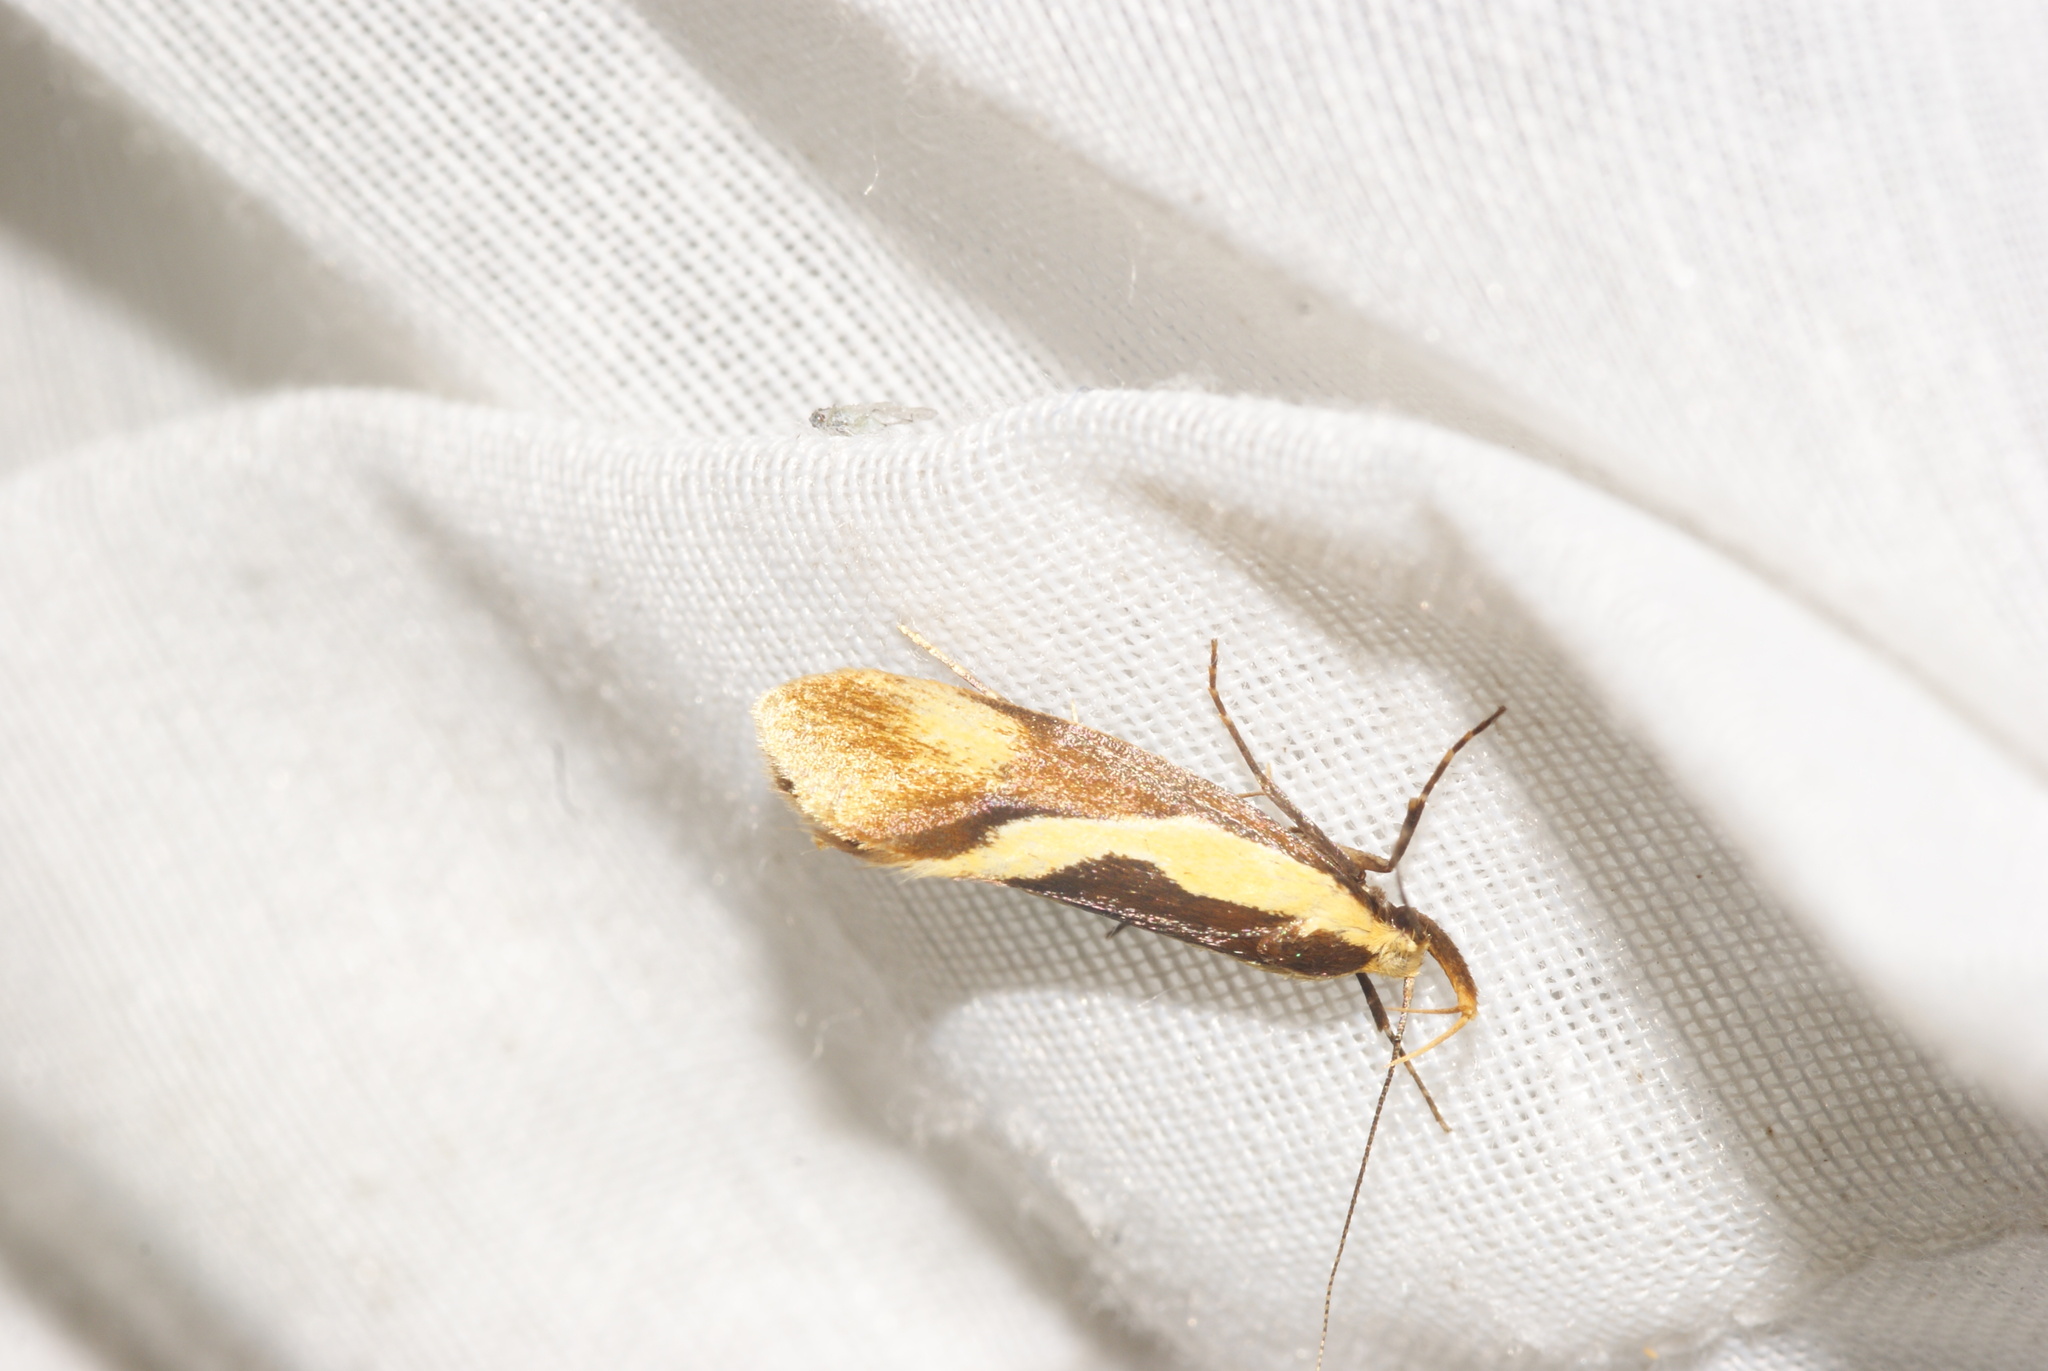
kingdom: Animalia
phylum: Arthropoda
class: Insecta
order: Lepidoptera
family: Oecophoridae
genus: Harpella
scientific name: Harpella forficella
